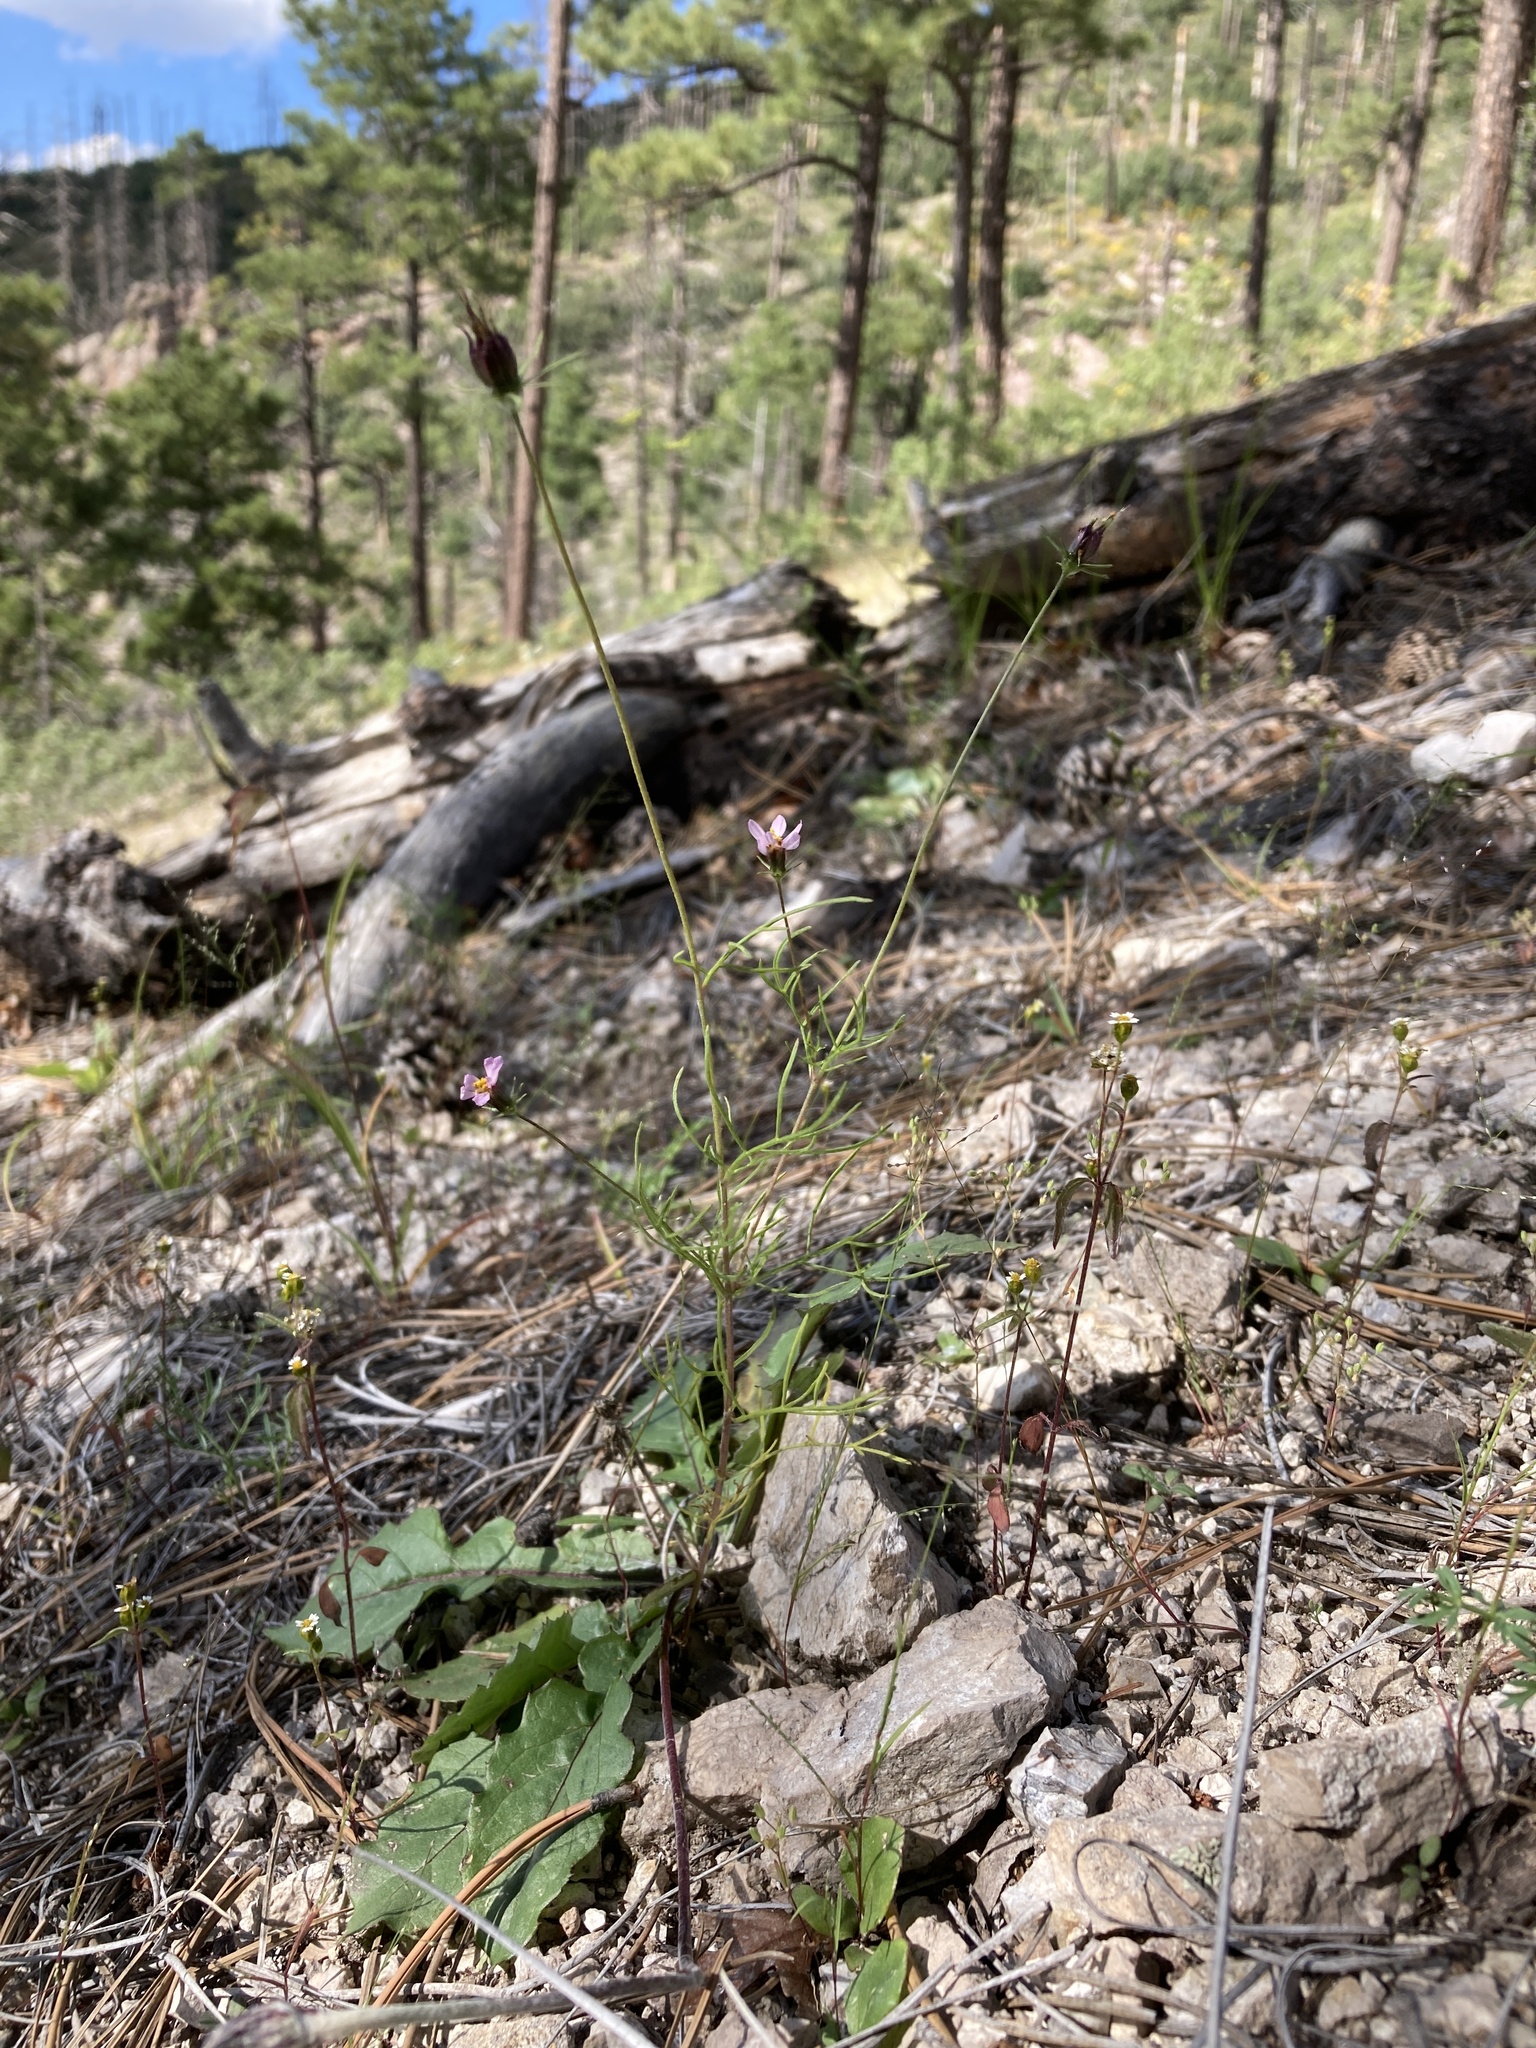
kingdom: Plantae
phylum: Tracheophyta
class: Magnoliopsida
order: Asterales
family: Asteraceae
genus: Cosmos
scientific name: Cosmos parviflorus
